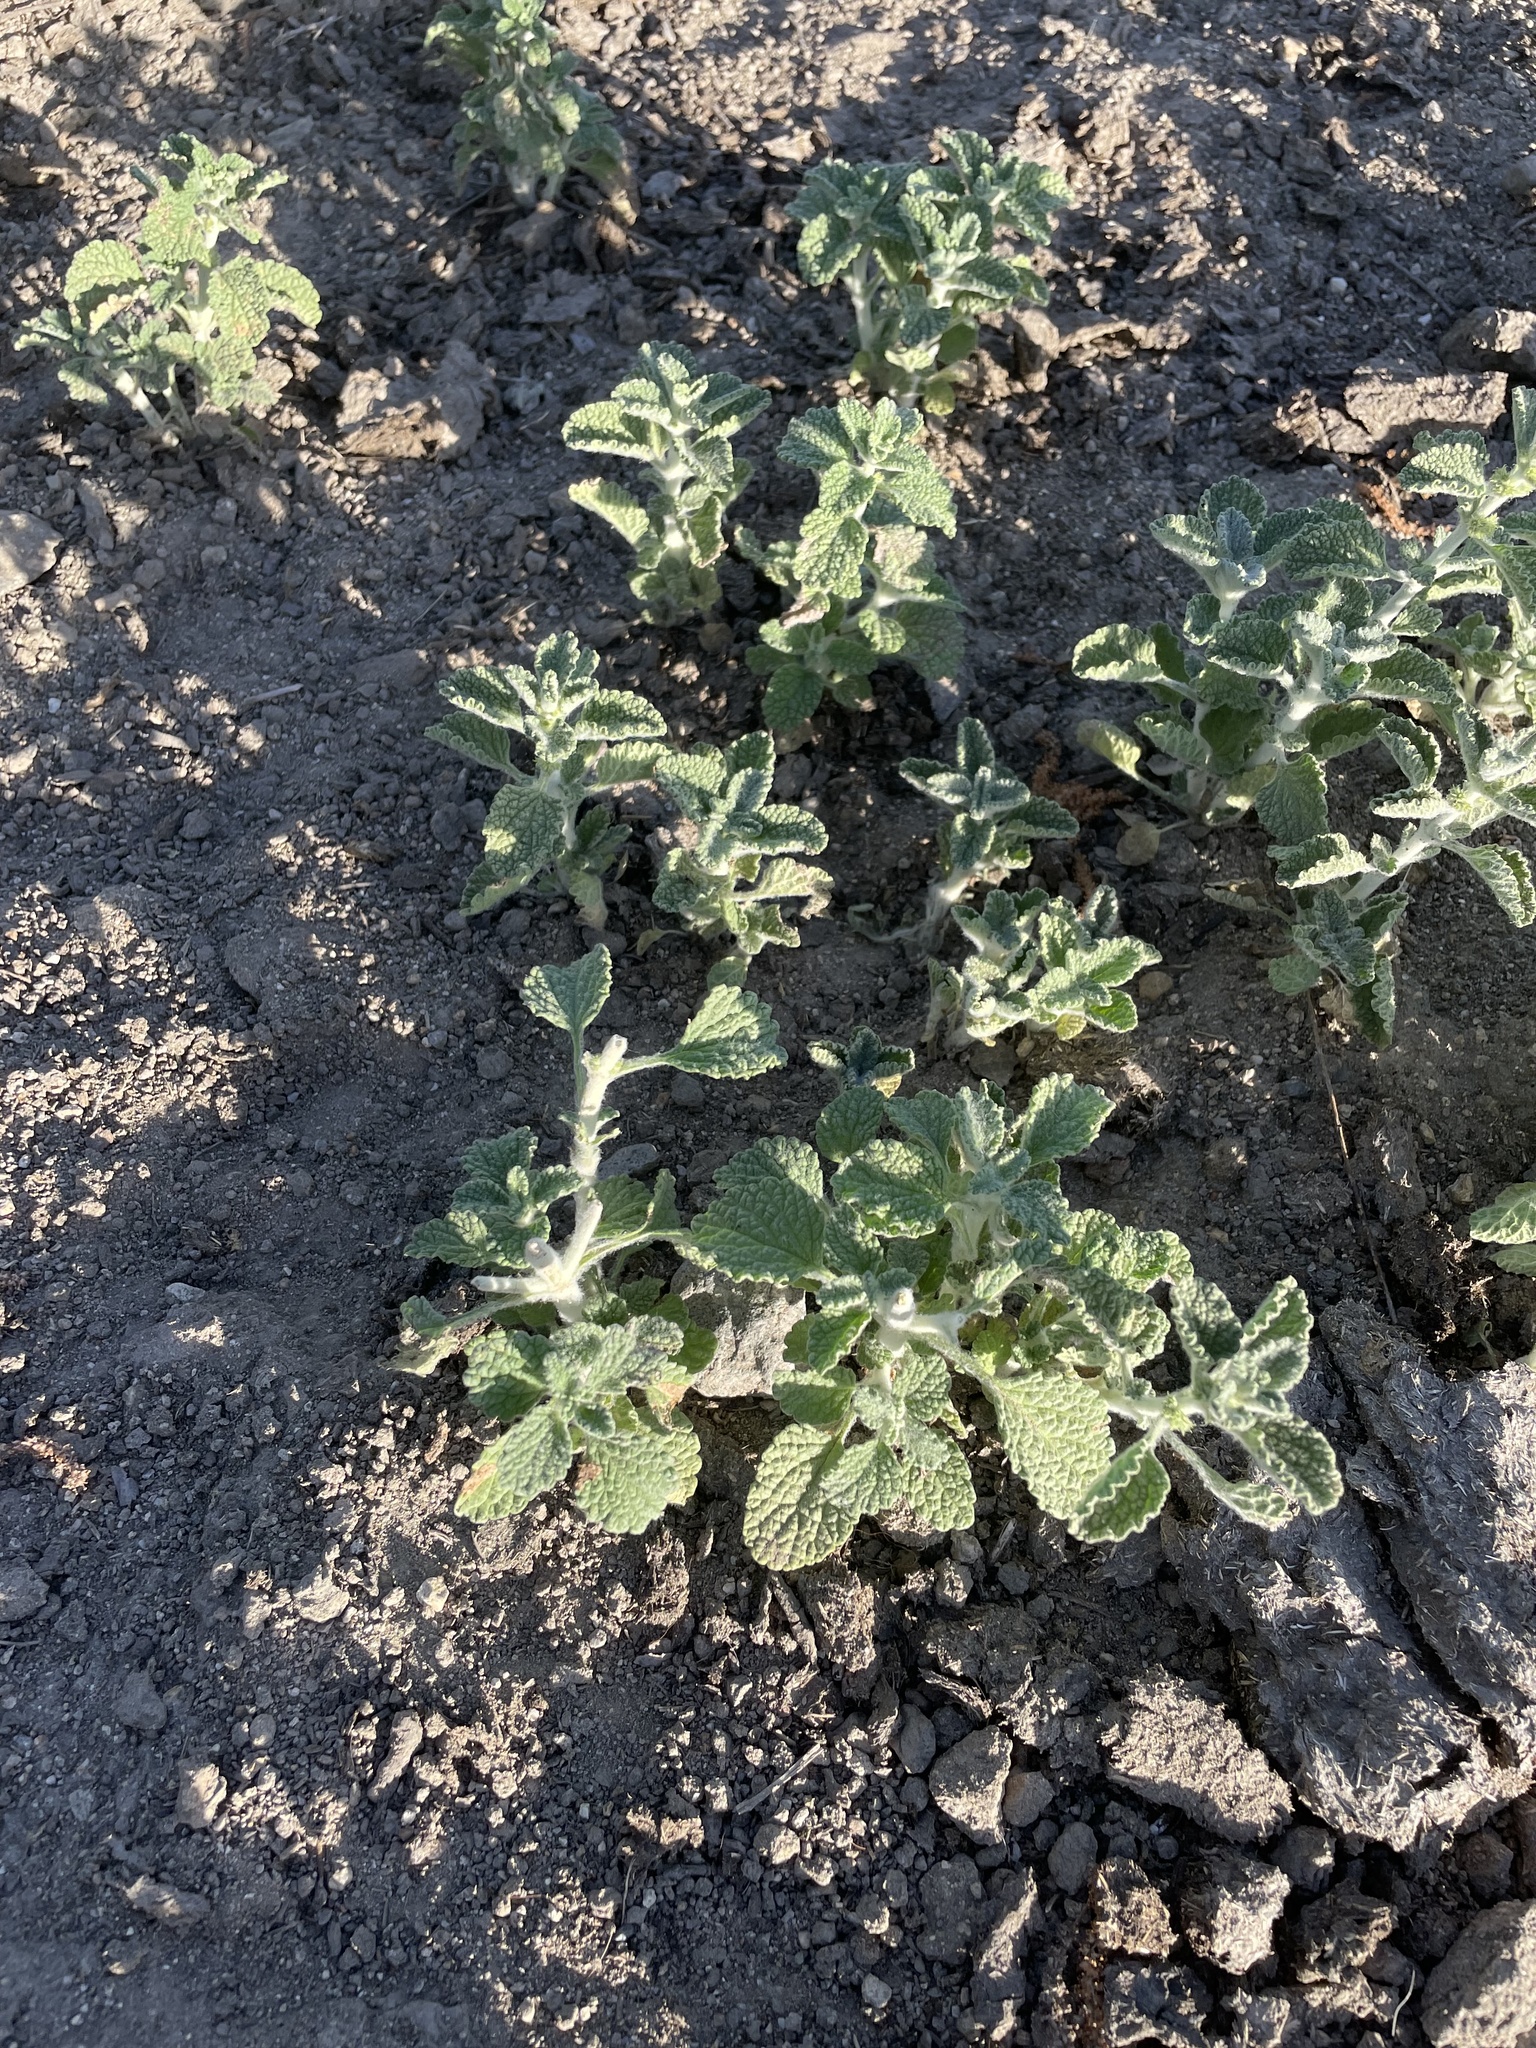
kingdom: Plantae
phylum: Tracheophyta
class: Magnoliopsida
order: Lamiales
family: Lamiaceae
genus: Marrubium
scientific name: Marrubium vulgare
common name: Horehound
